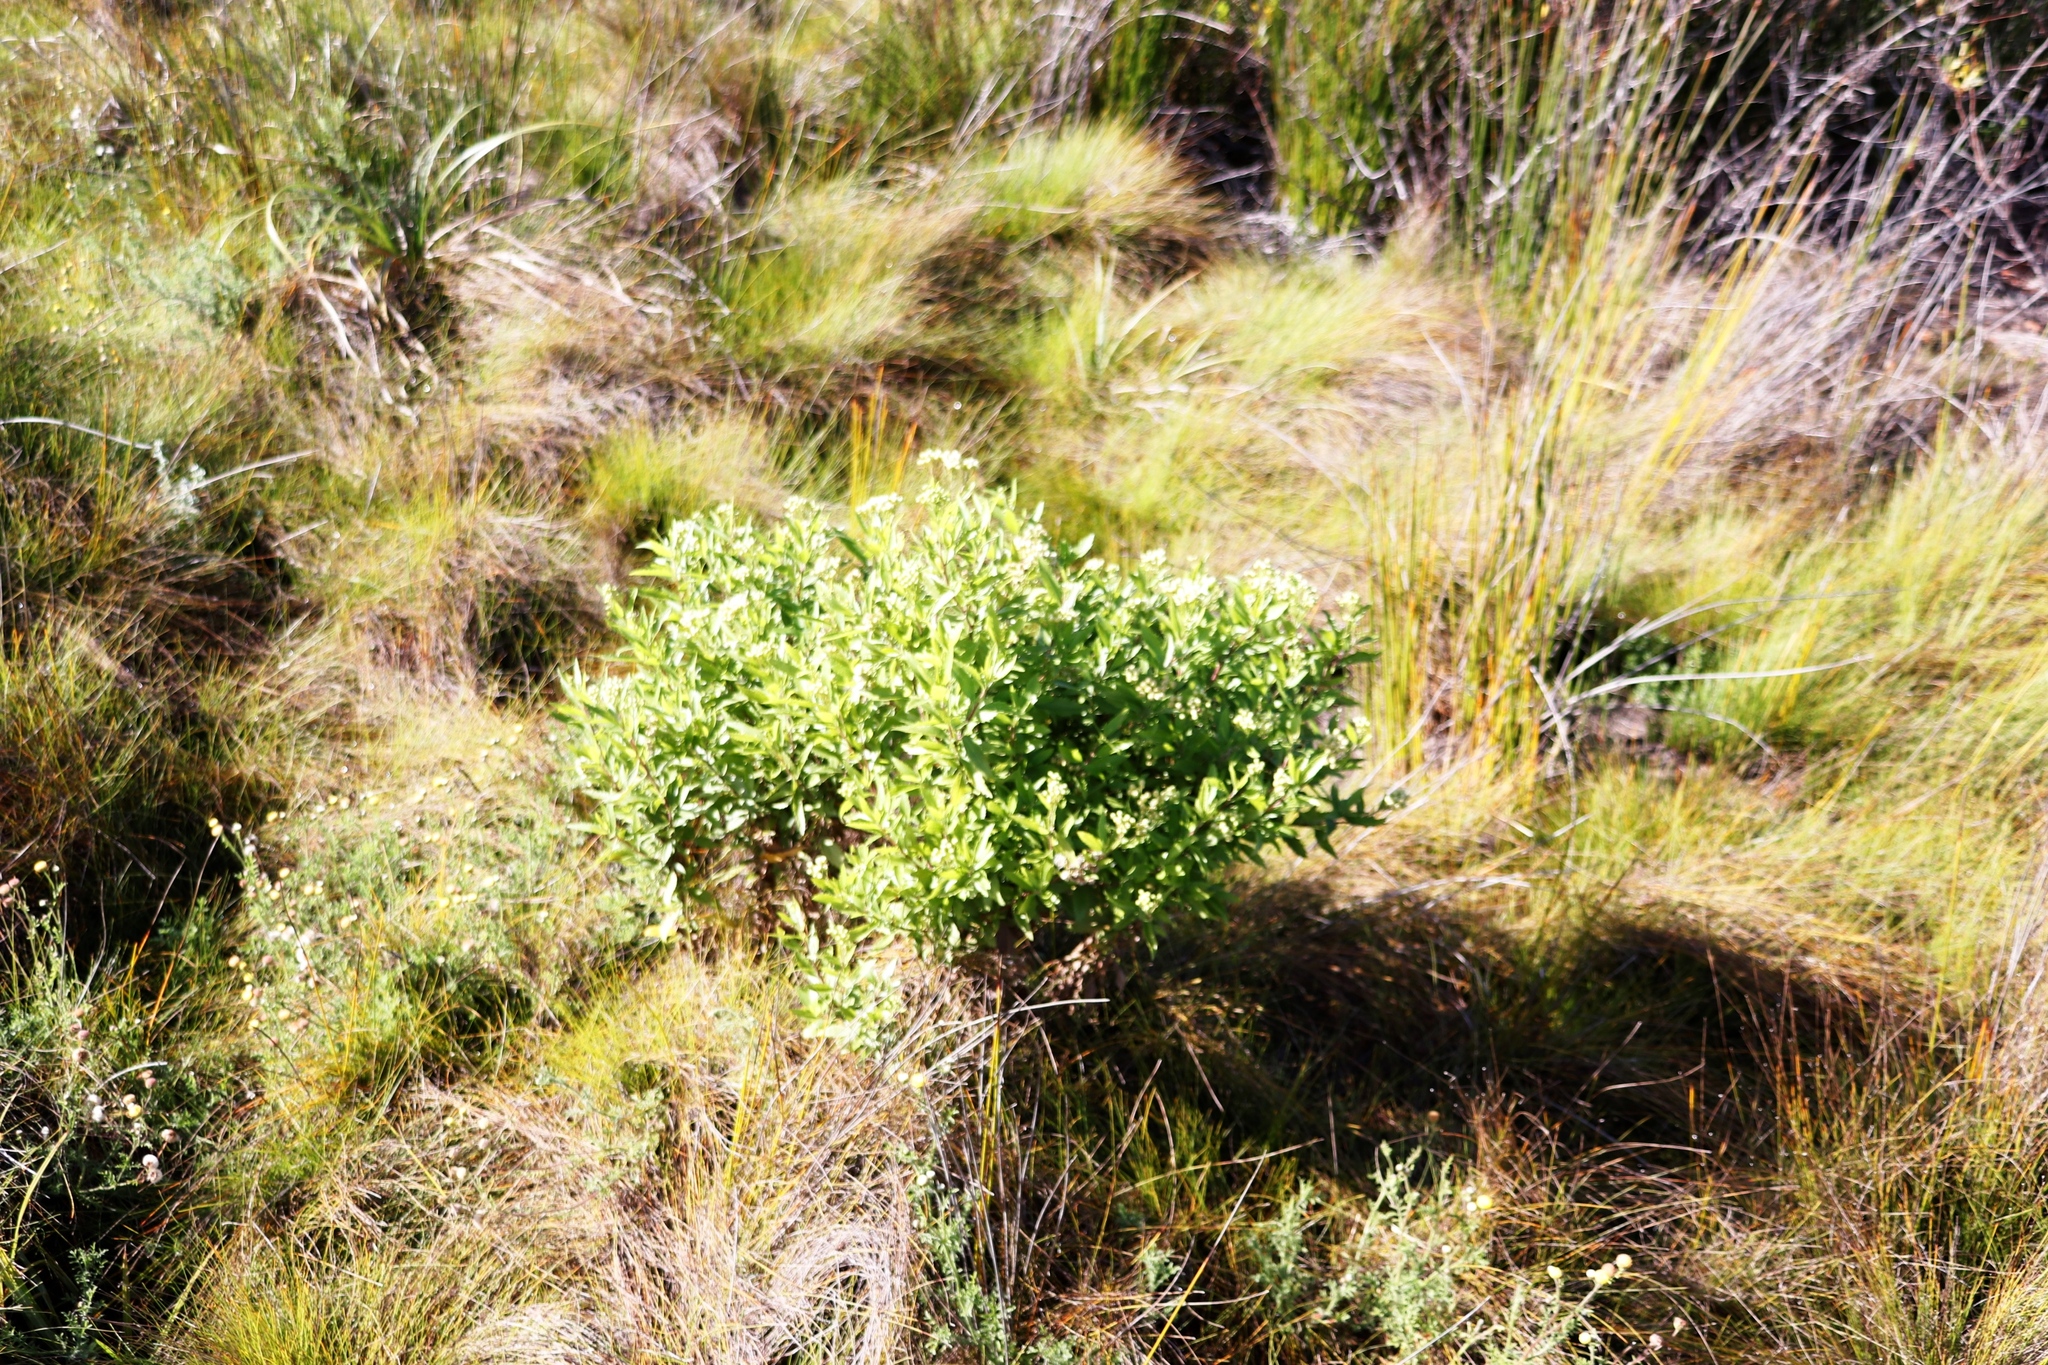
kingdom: Plantae
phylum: Tracheophyta
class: Magnoliopsida
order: Asterales
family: Asteraceae
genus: Nidorella
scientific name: Nidorella ivifolia
